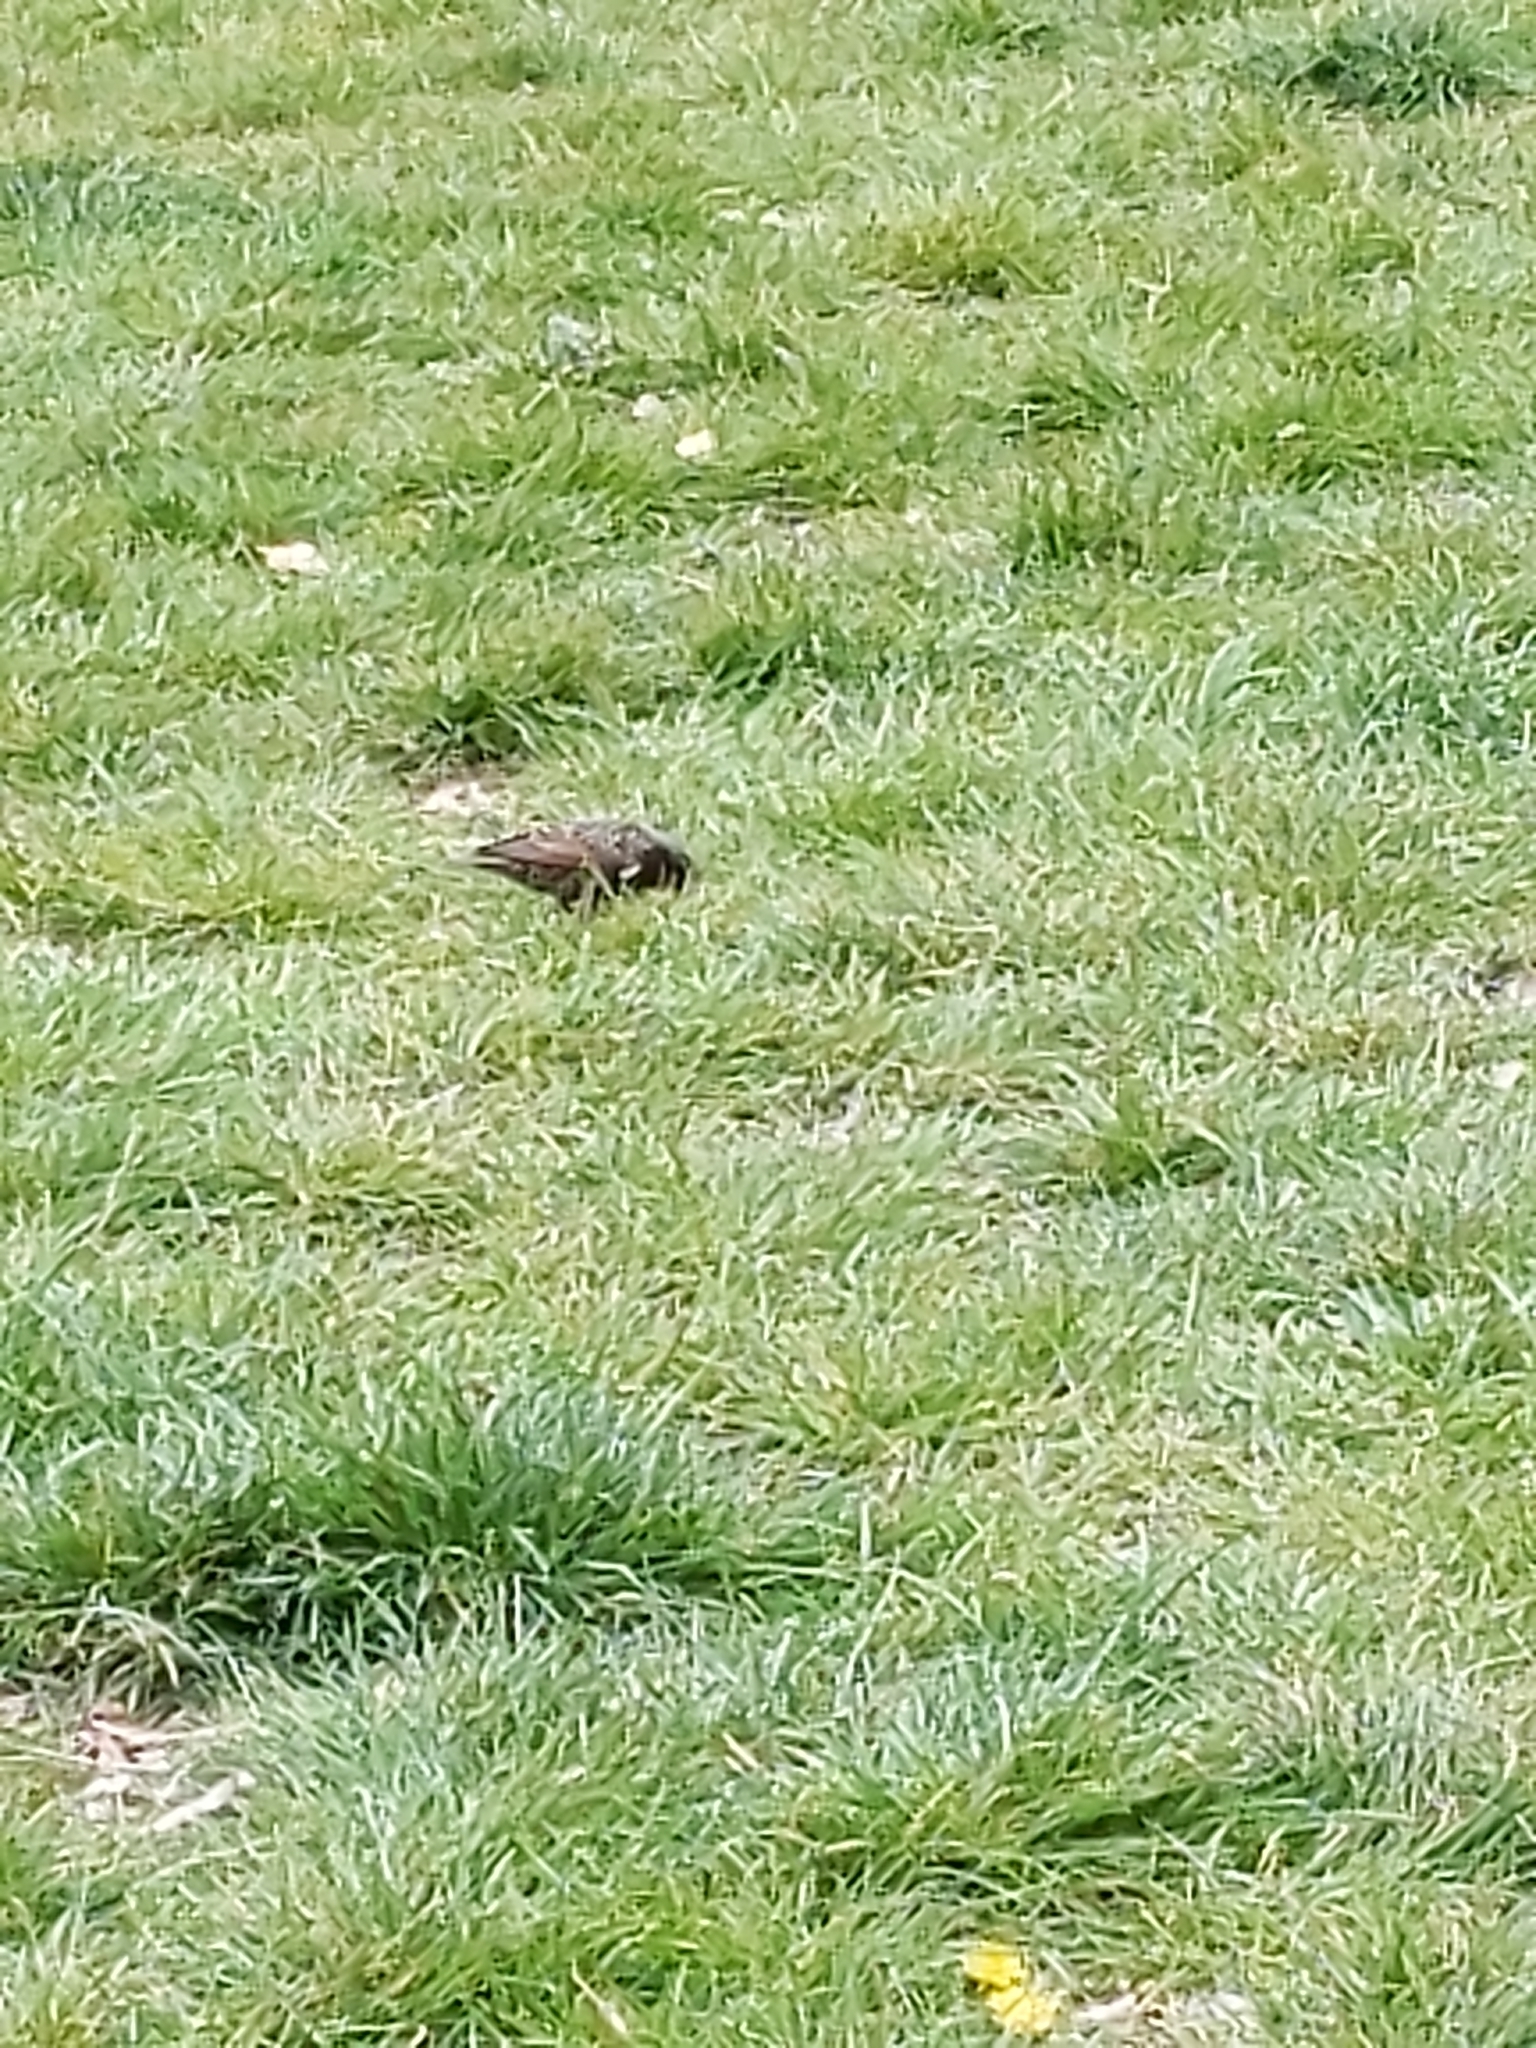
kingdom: Animalia
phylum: Chordata
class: Aves
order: Passeriformes
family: Sturnidae
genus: Sturnus
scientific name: Sturnus vulgaris
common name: Common starling
